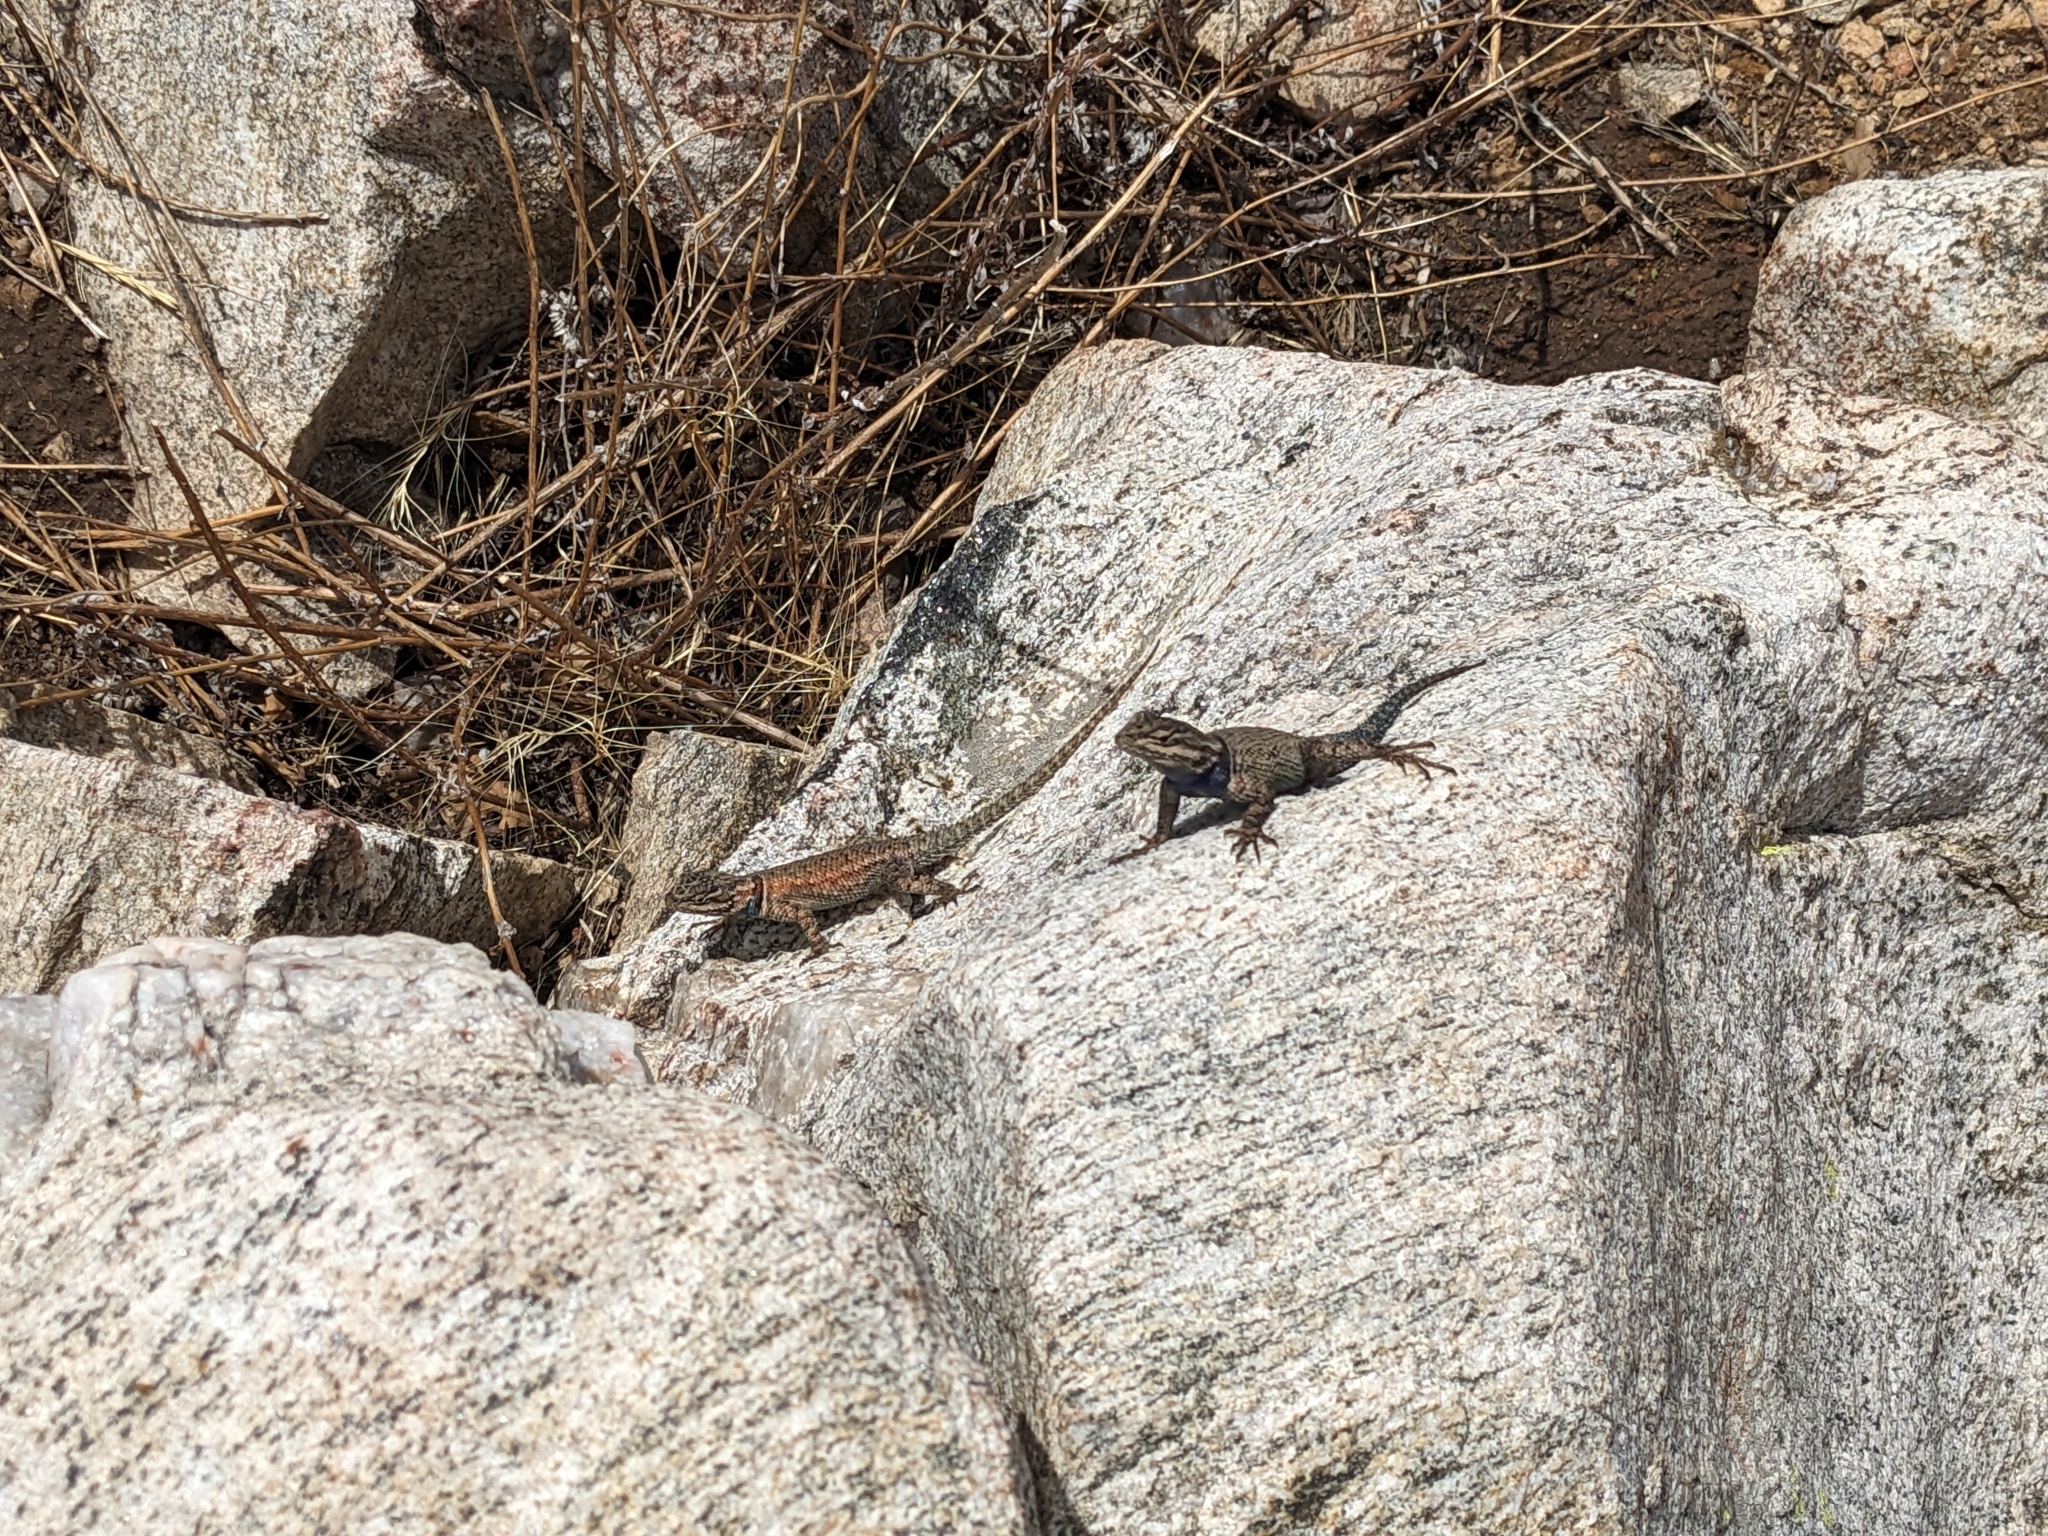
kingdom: Animalia
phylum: Chordata
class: Squamata
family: Phrynosomatidae
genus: Sceloporus
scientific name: Sceloporus jarrovii
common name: Yarrow's spiny lizard
